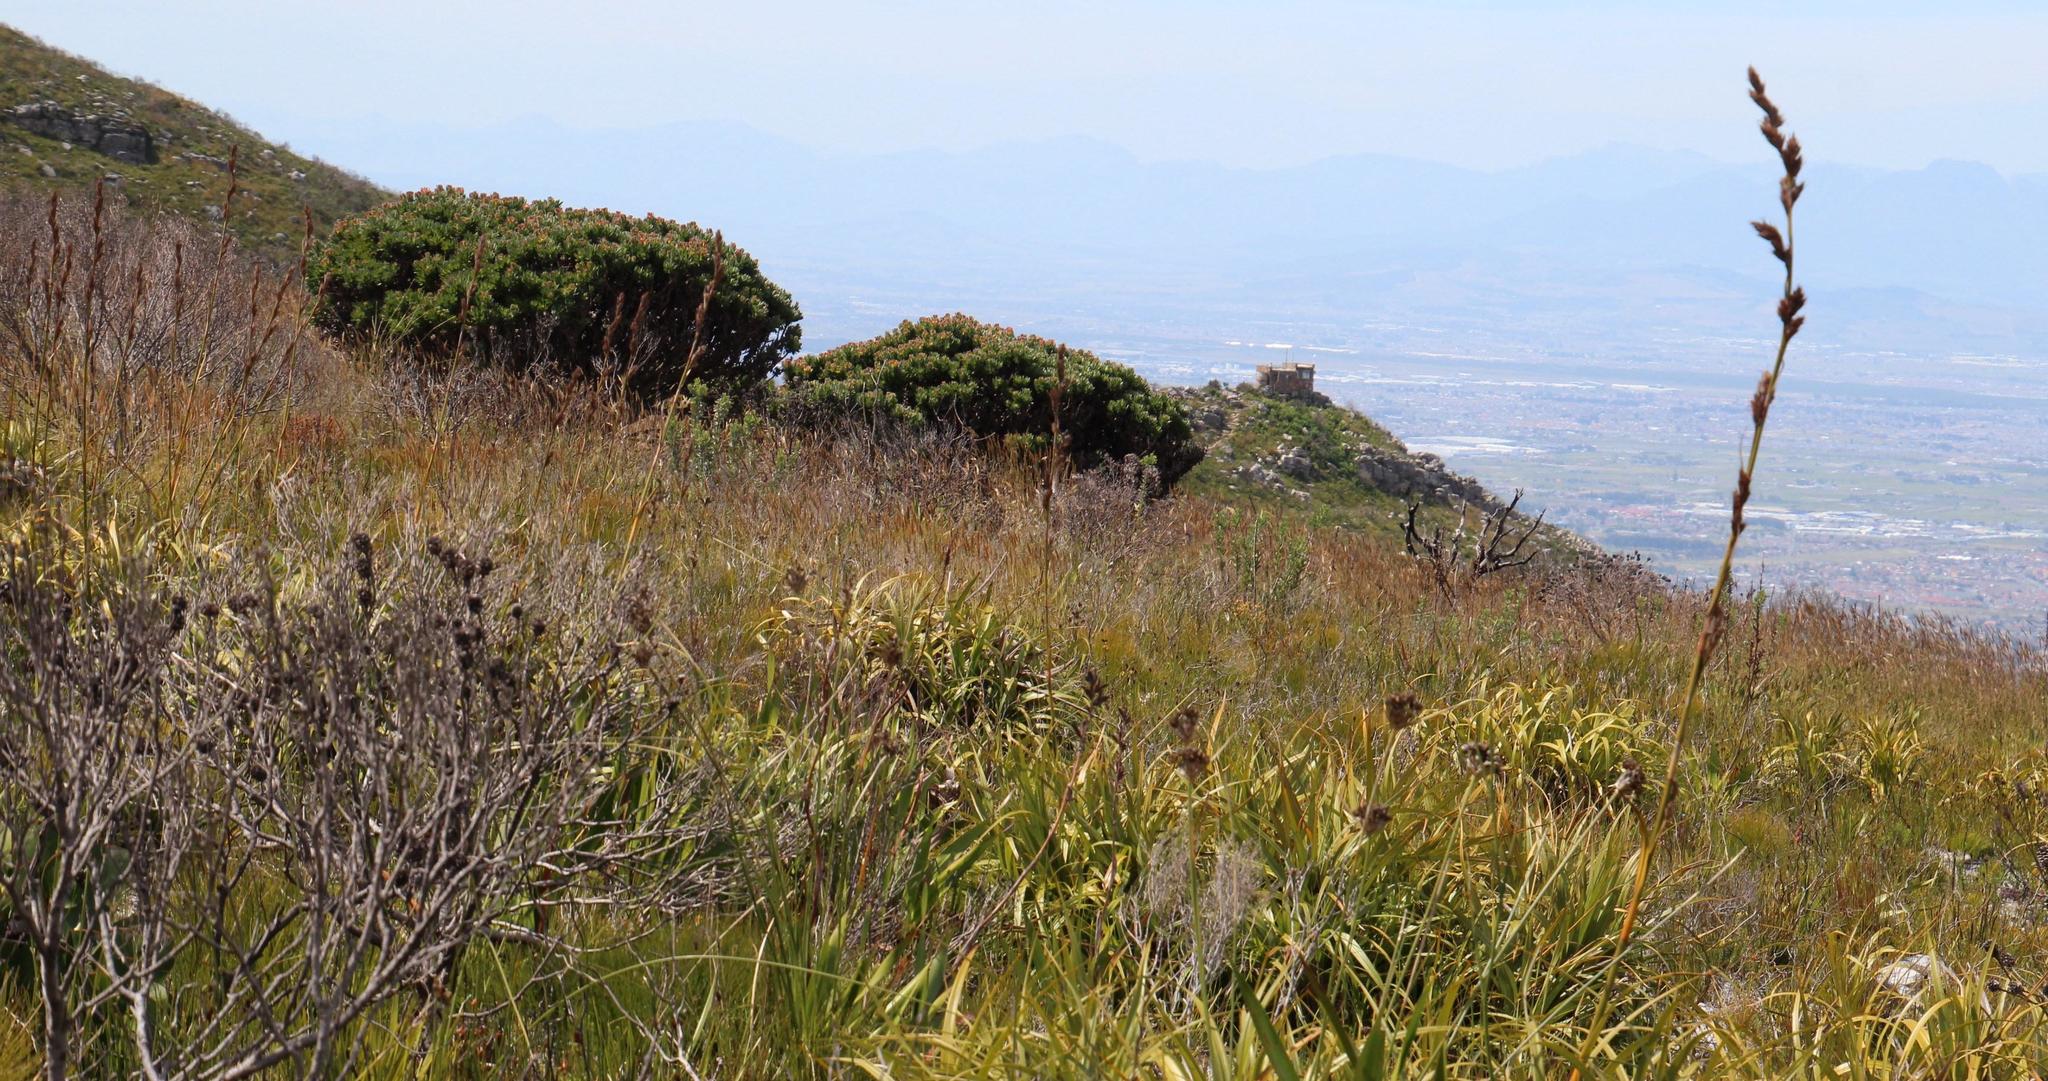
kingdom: Plantae
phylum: Tracheophyta
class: Magnoliopsida
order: Proteales
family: Proteaceae
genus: Mimetes
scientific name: Mimetes fimbriifolius
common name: Fringed bottlebrush
